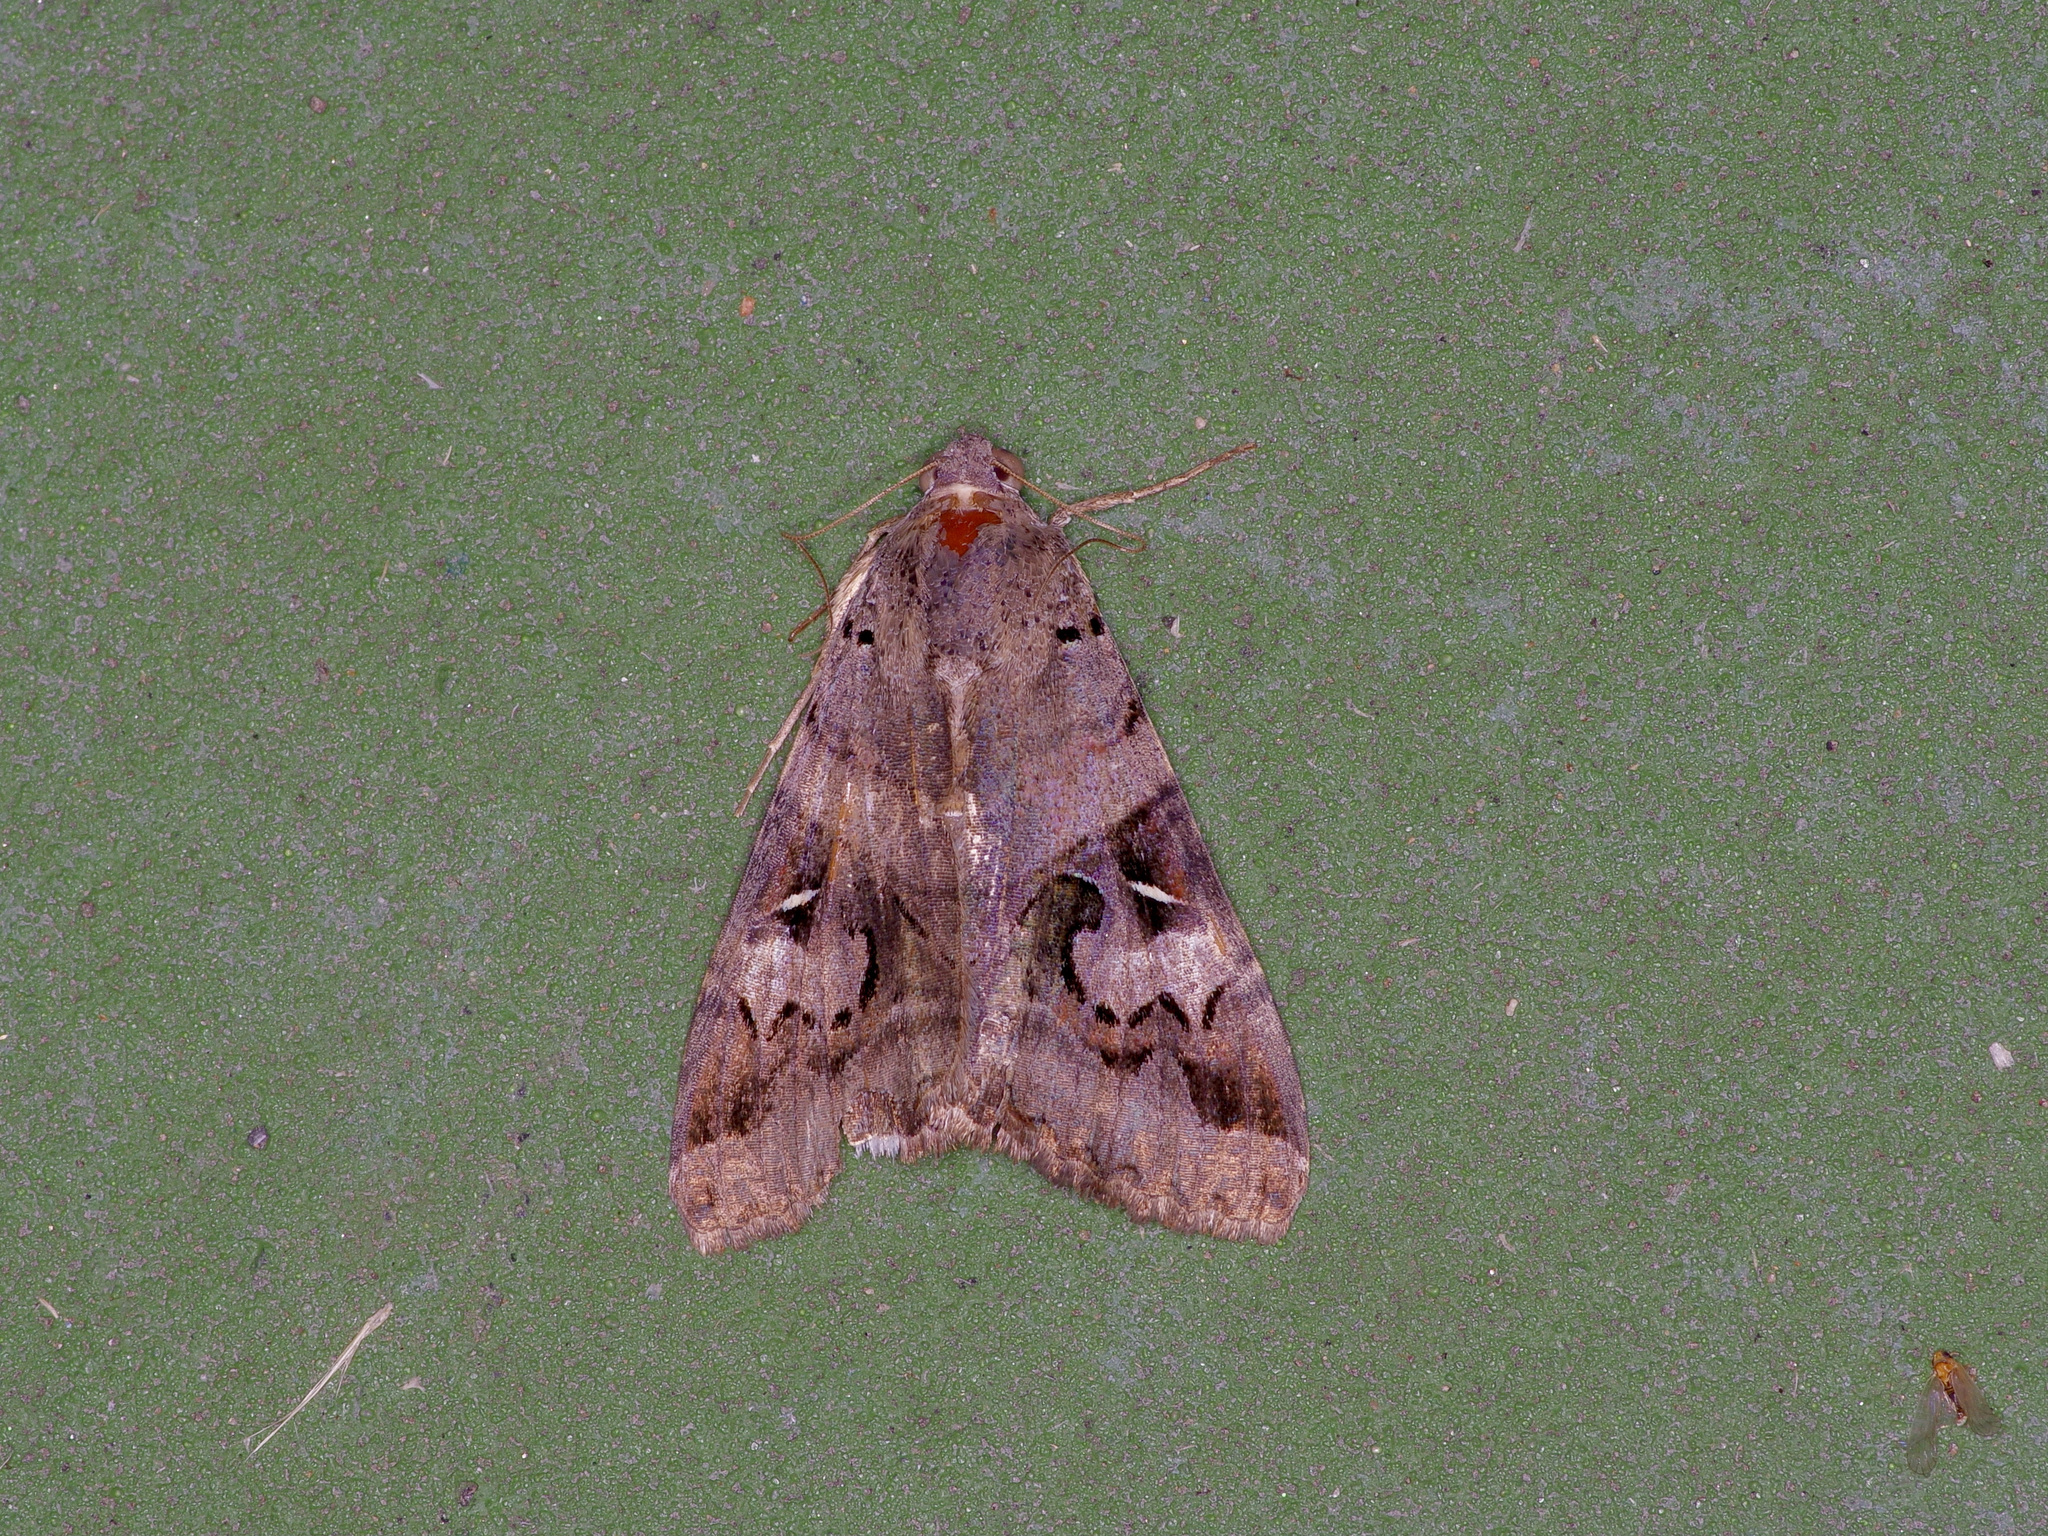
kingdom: Animalia
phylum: Arthropoda
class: Insecta
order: Lepidoptera
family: Erebidae
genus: Melipotis
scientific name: Melipotis indomita
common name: Moth
